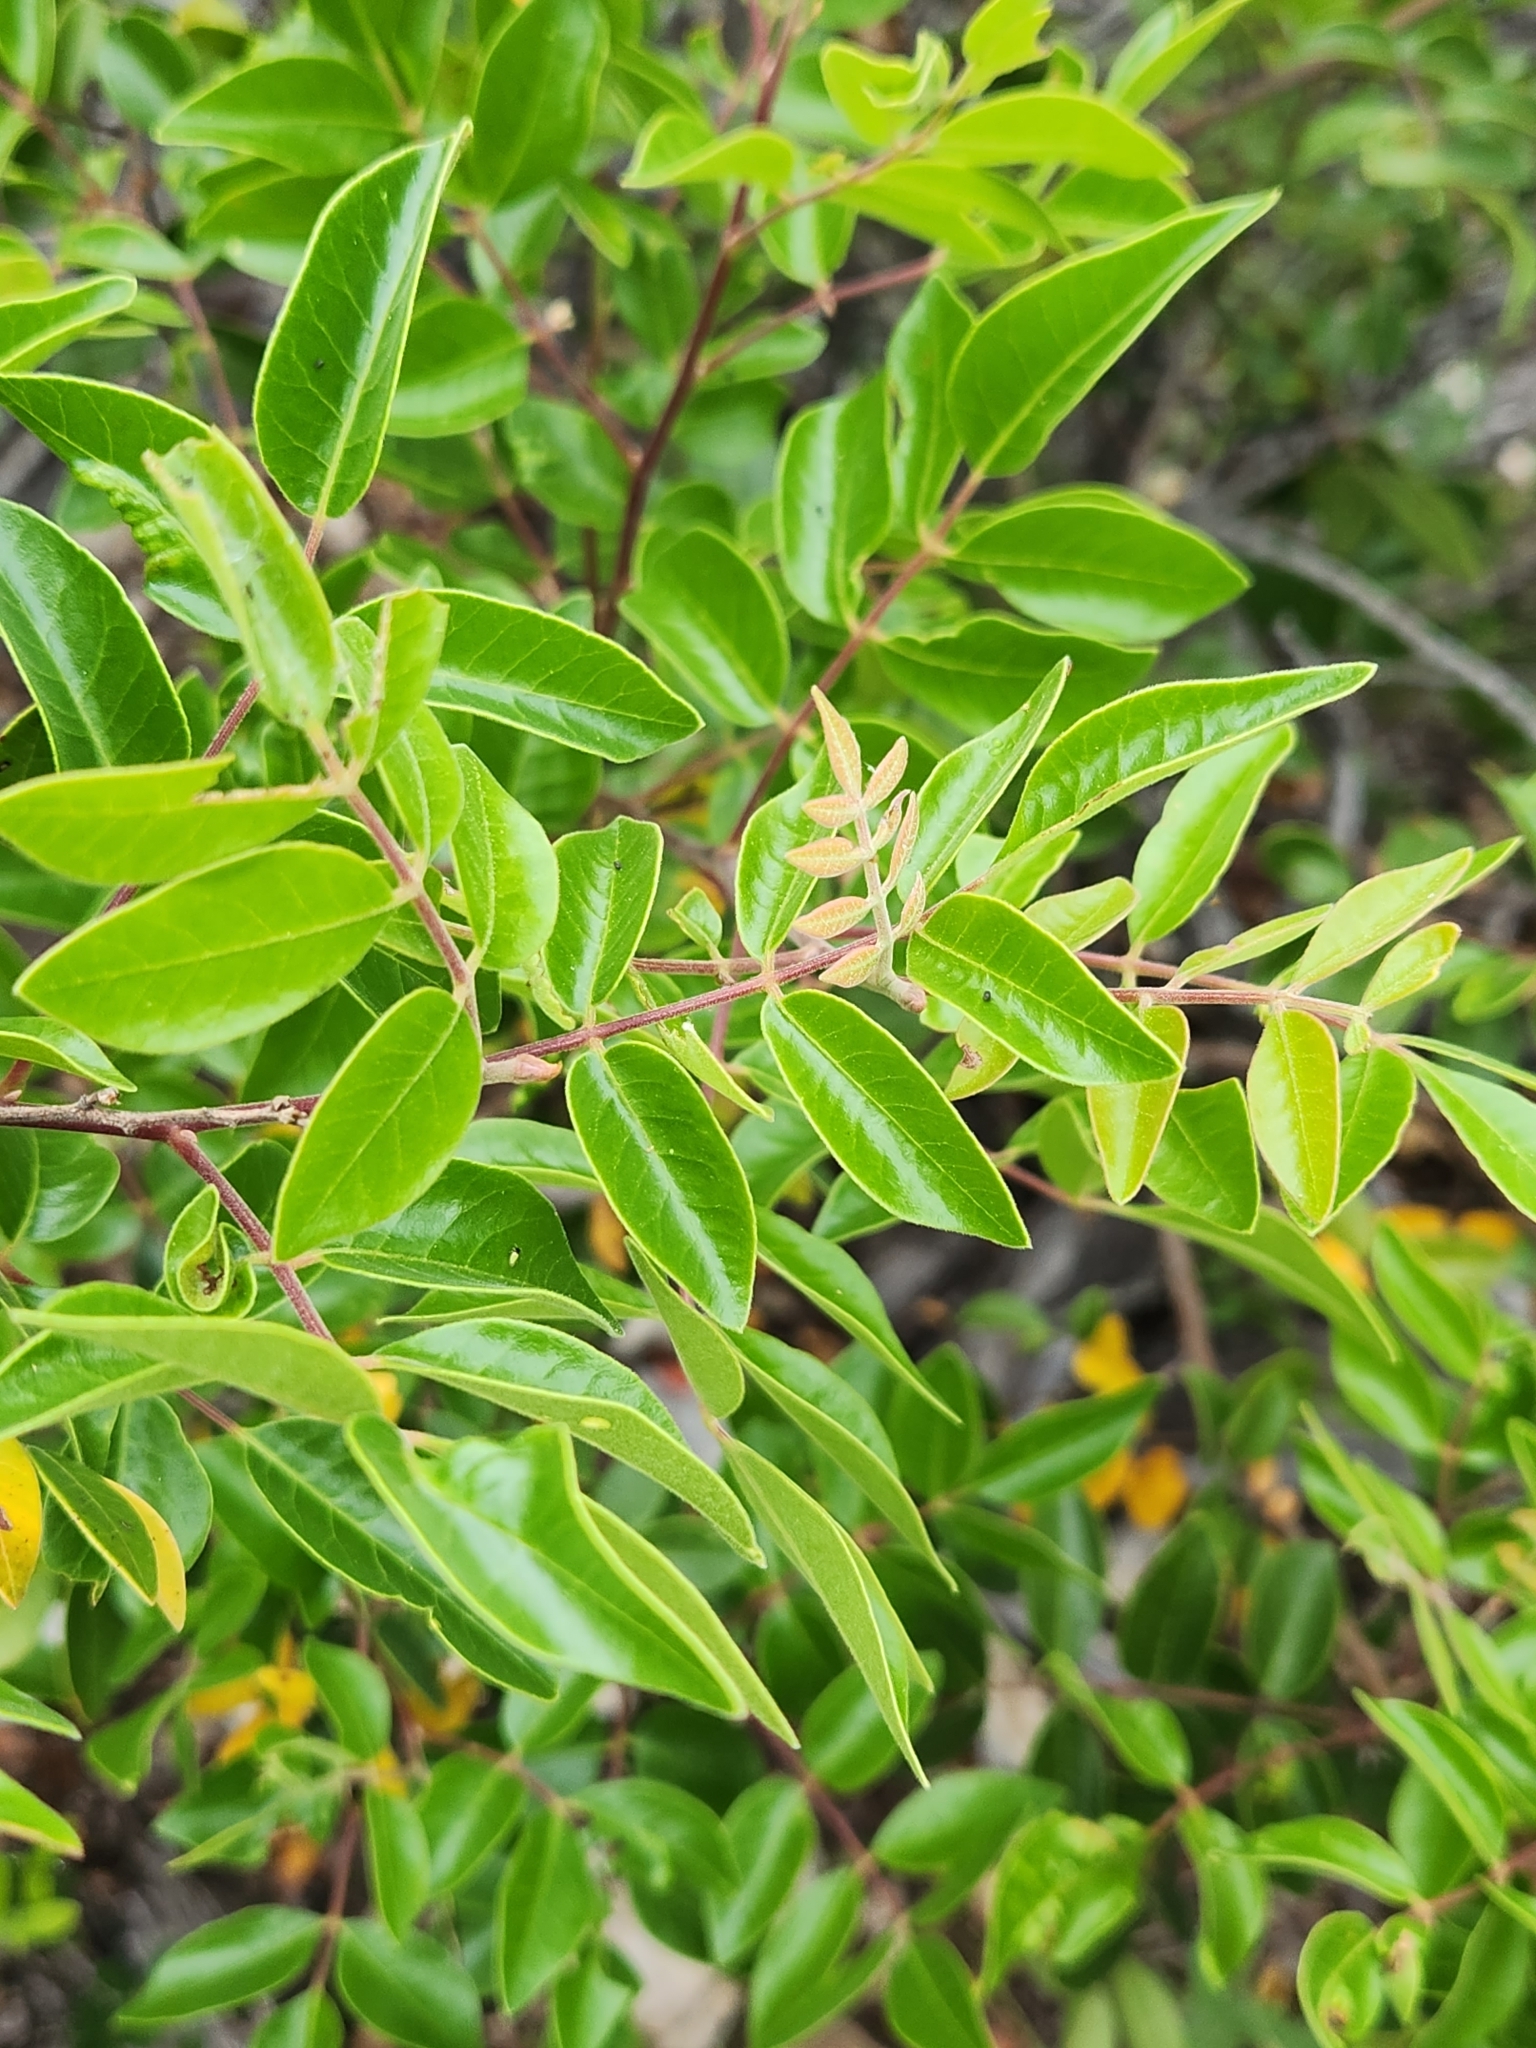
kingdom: Plantae
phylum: Tracheophyta
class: Magnoliopsida
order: Sapindales
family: Anacardiaceae
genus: Rhus
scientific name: Rhus virens
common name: Evergreen sumac
